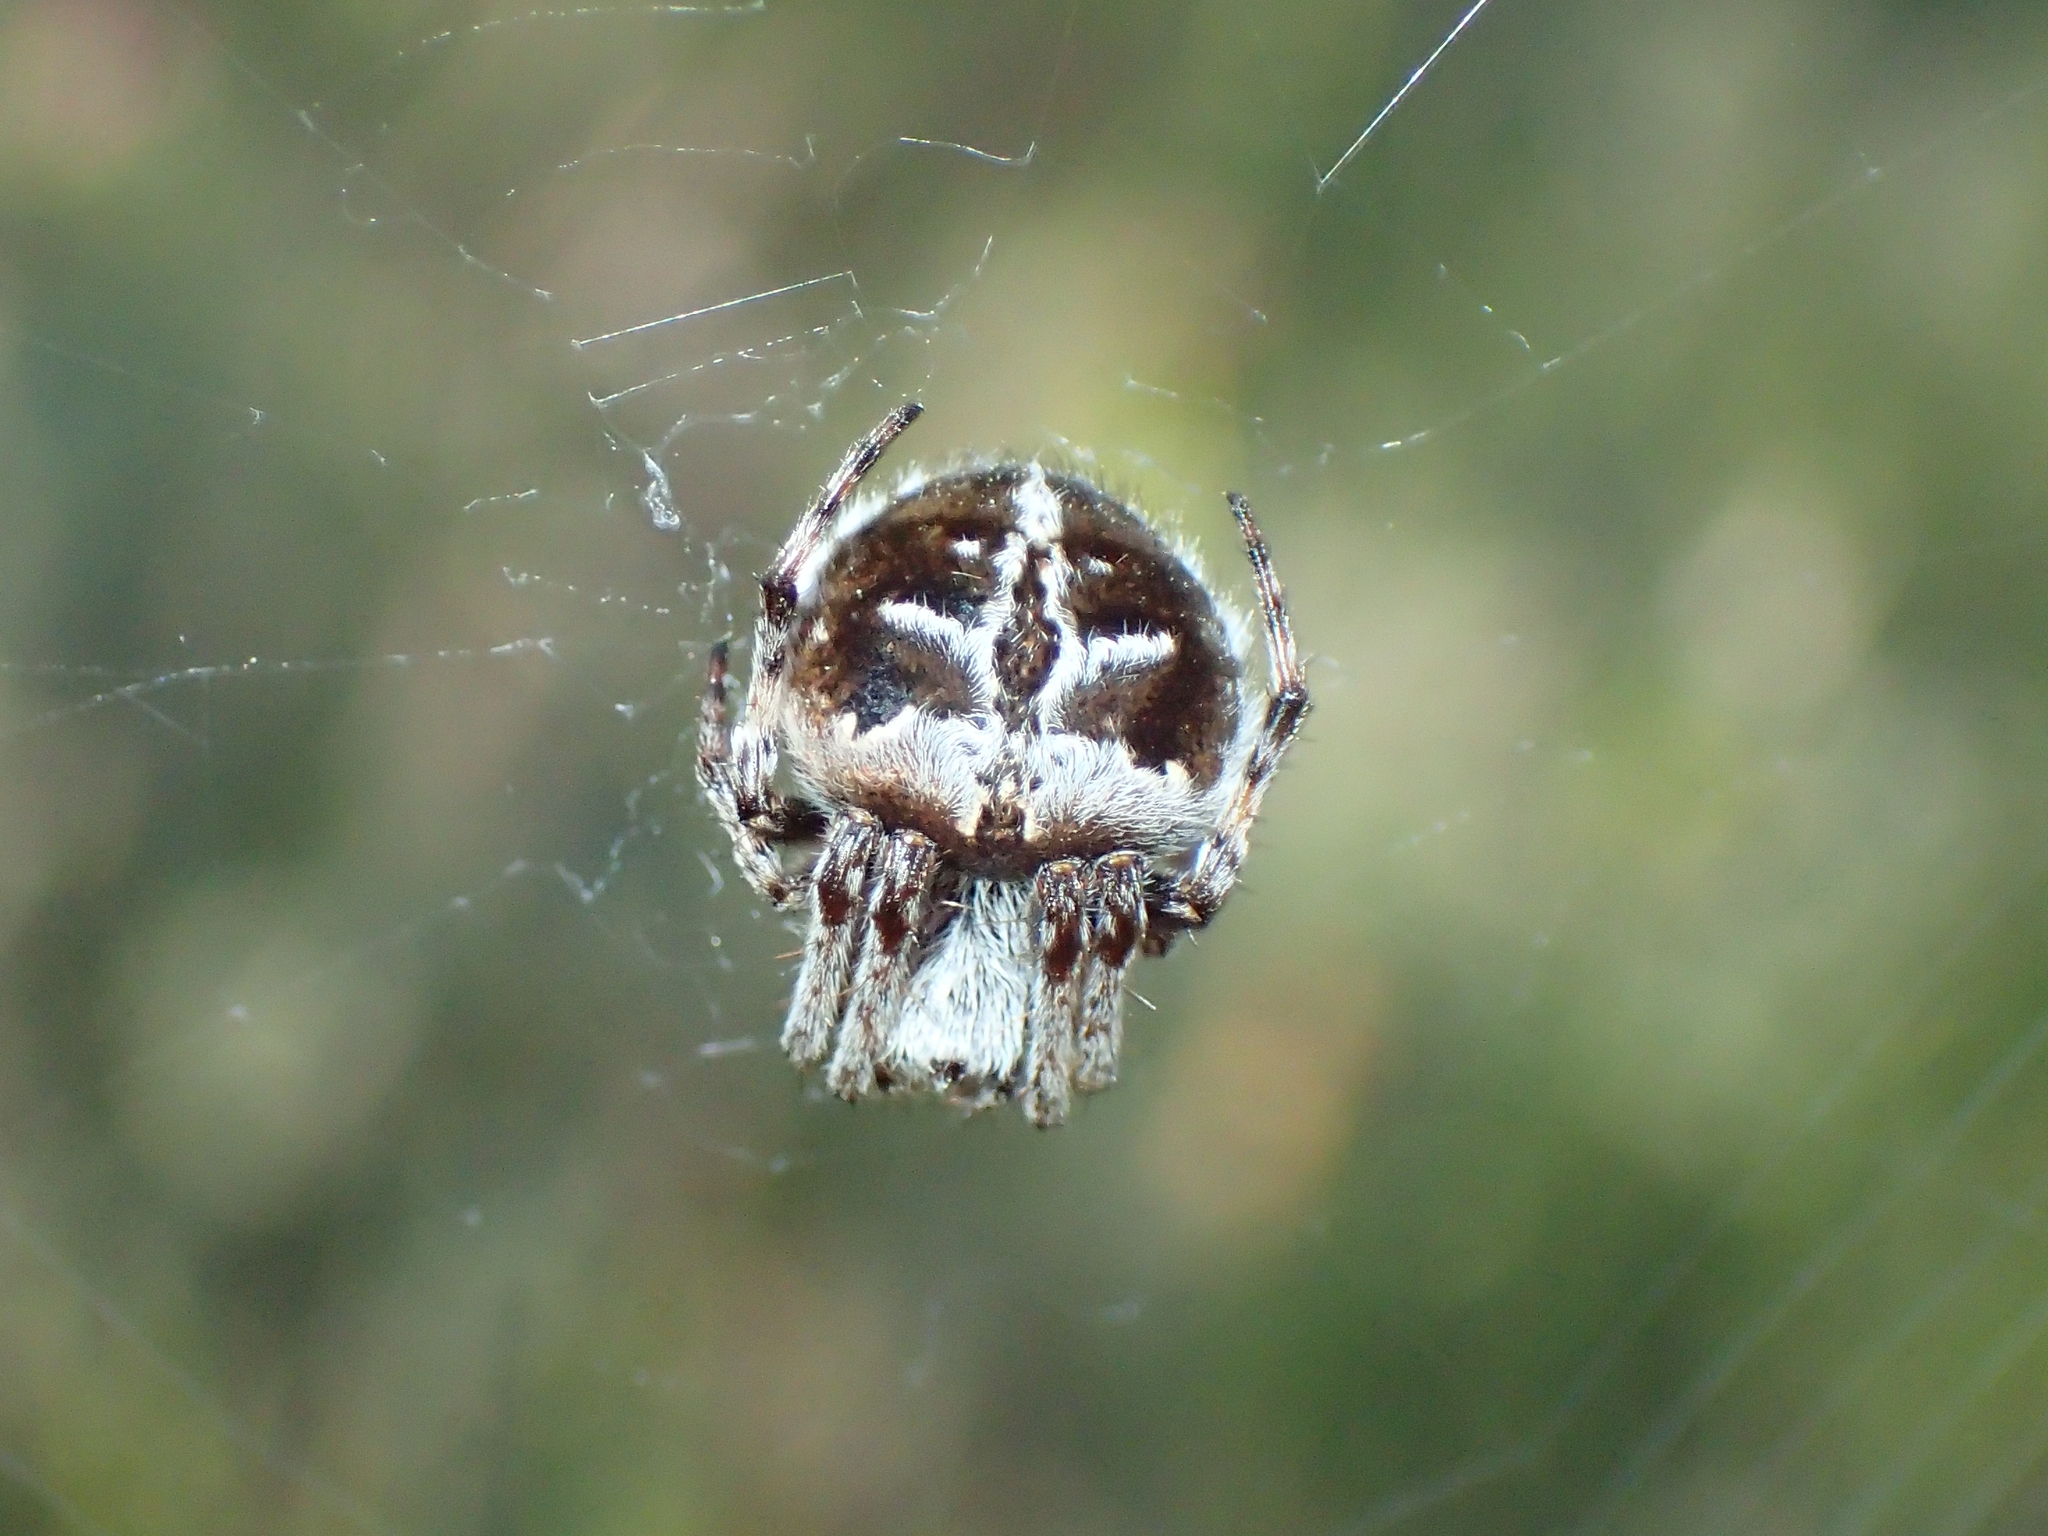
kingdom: Animalia
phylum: Arthropoda
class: Arachnida
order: Araneae
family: Araneidae
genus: Agalenatea
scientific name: Agalenatea redii
